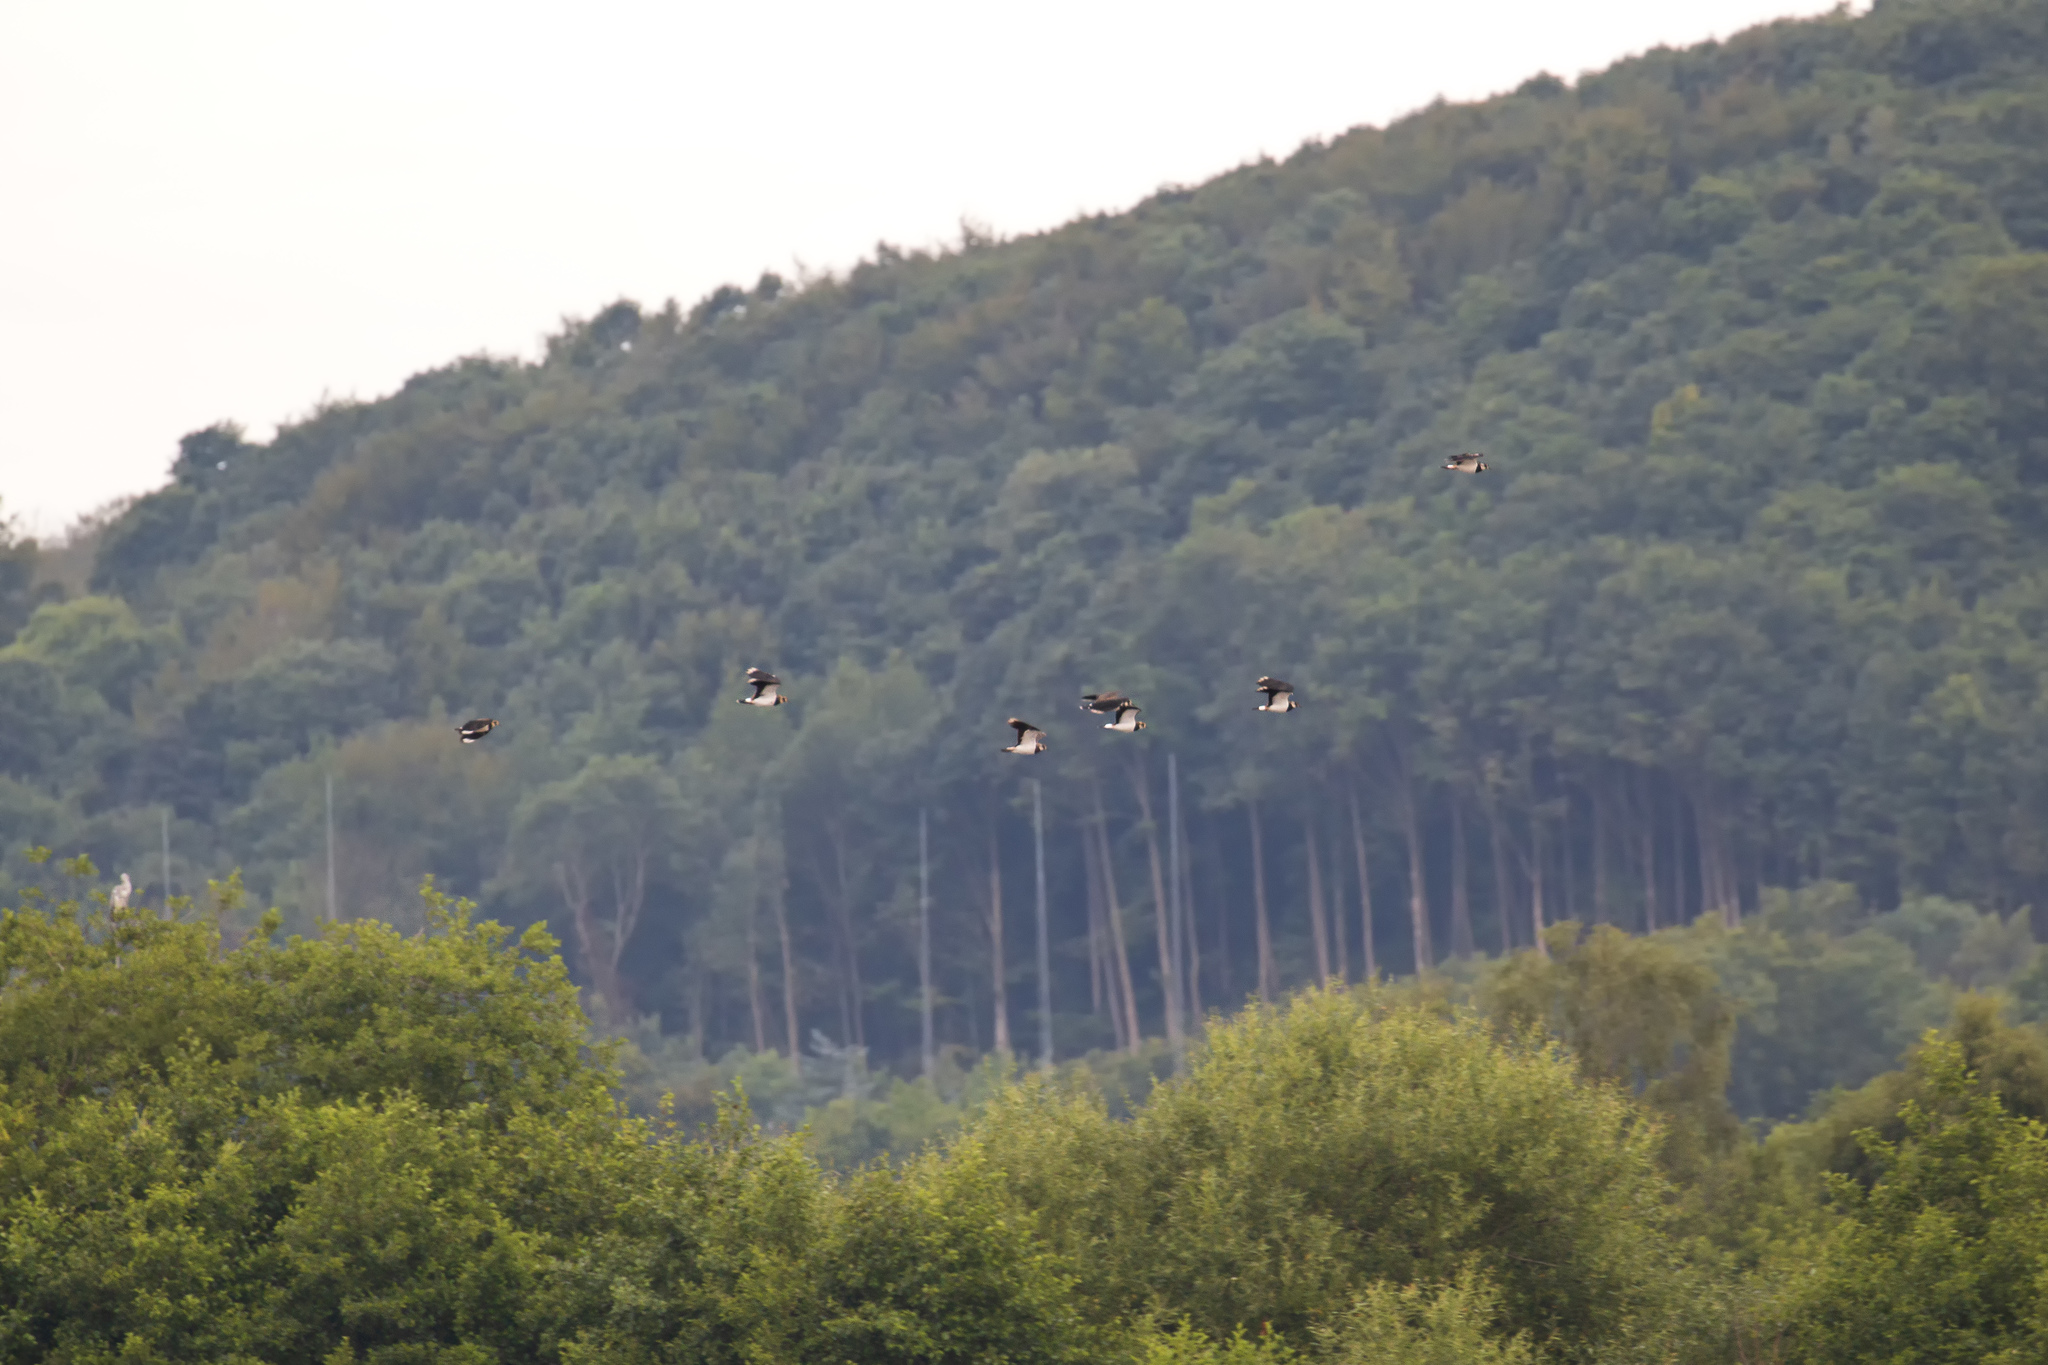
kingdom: Animalia
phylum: Chordata
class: Aves
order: Charadriiformes
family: Charadriidae
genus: Vanellus
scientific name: Vanellus vanellus
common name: Northern lapwing
